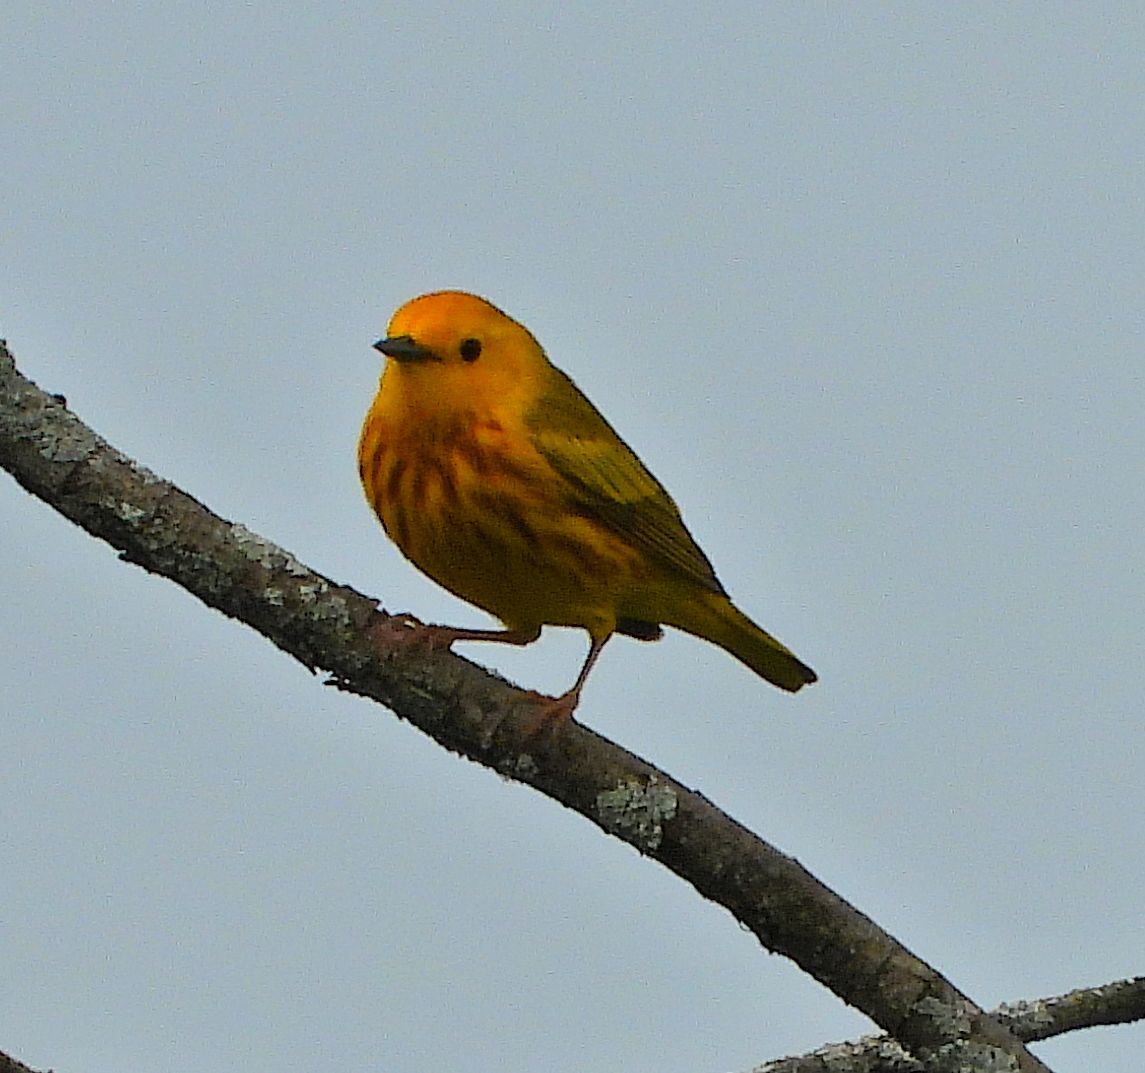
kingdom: Animalia
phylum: Chordata
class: Aves
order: Passeriformes
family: Parulidae
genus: Setophaga
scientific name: Setophaga petechia
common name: Yellow warbler
